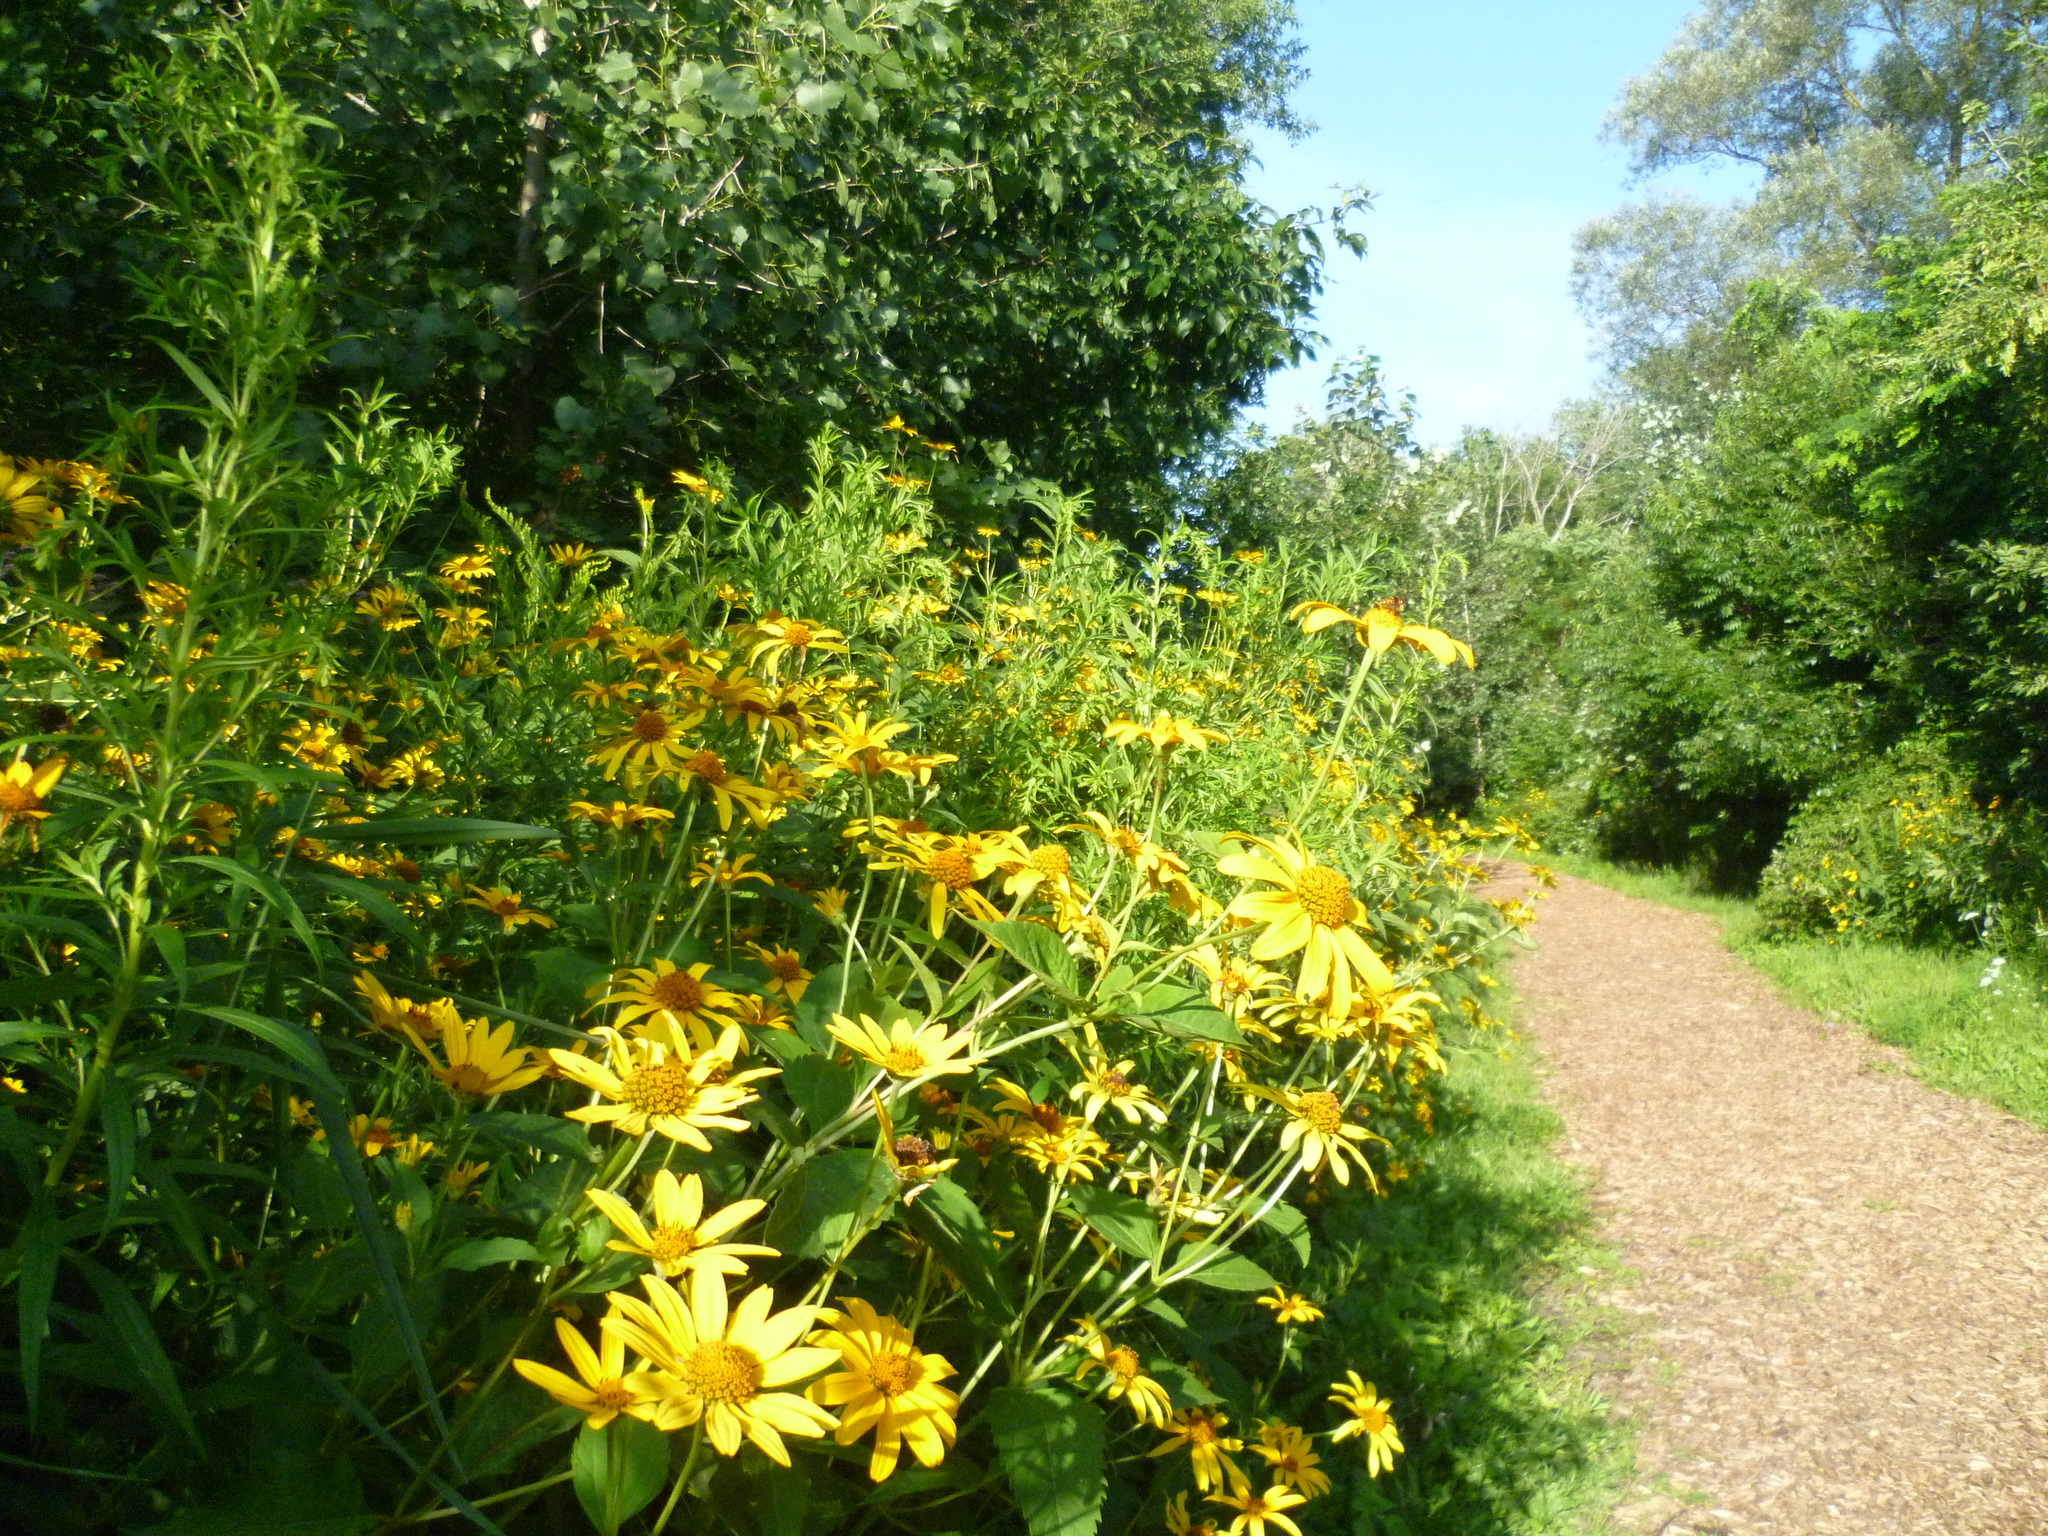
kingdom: Plantae
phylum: Tracheophyta
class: Magnoliopsida
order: Asterales
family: Asteraceae
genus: Heliopsis
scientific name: Heliopsis helianthoides
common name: False sunflower
